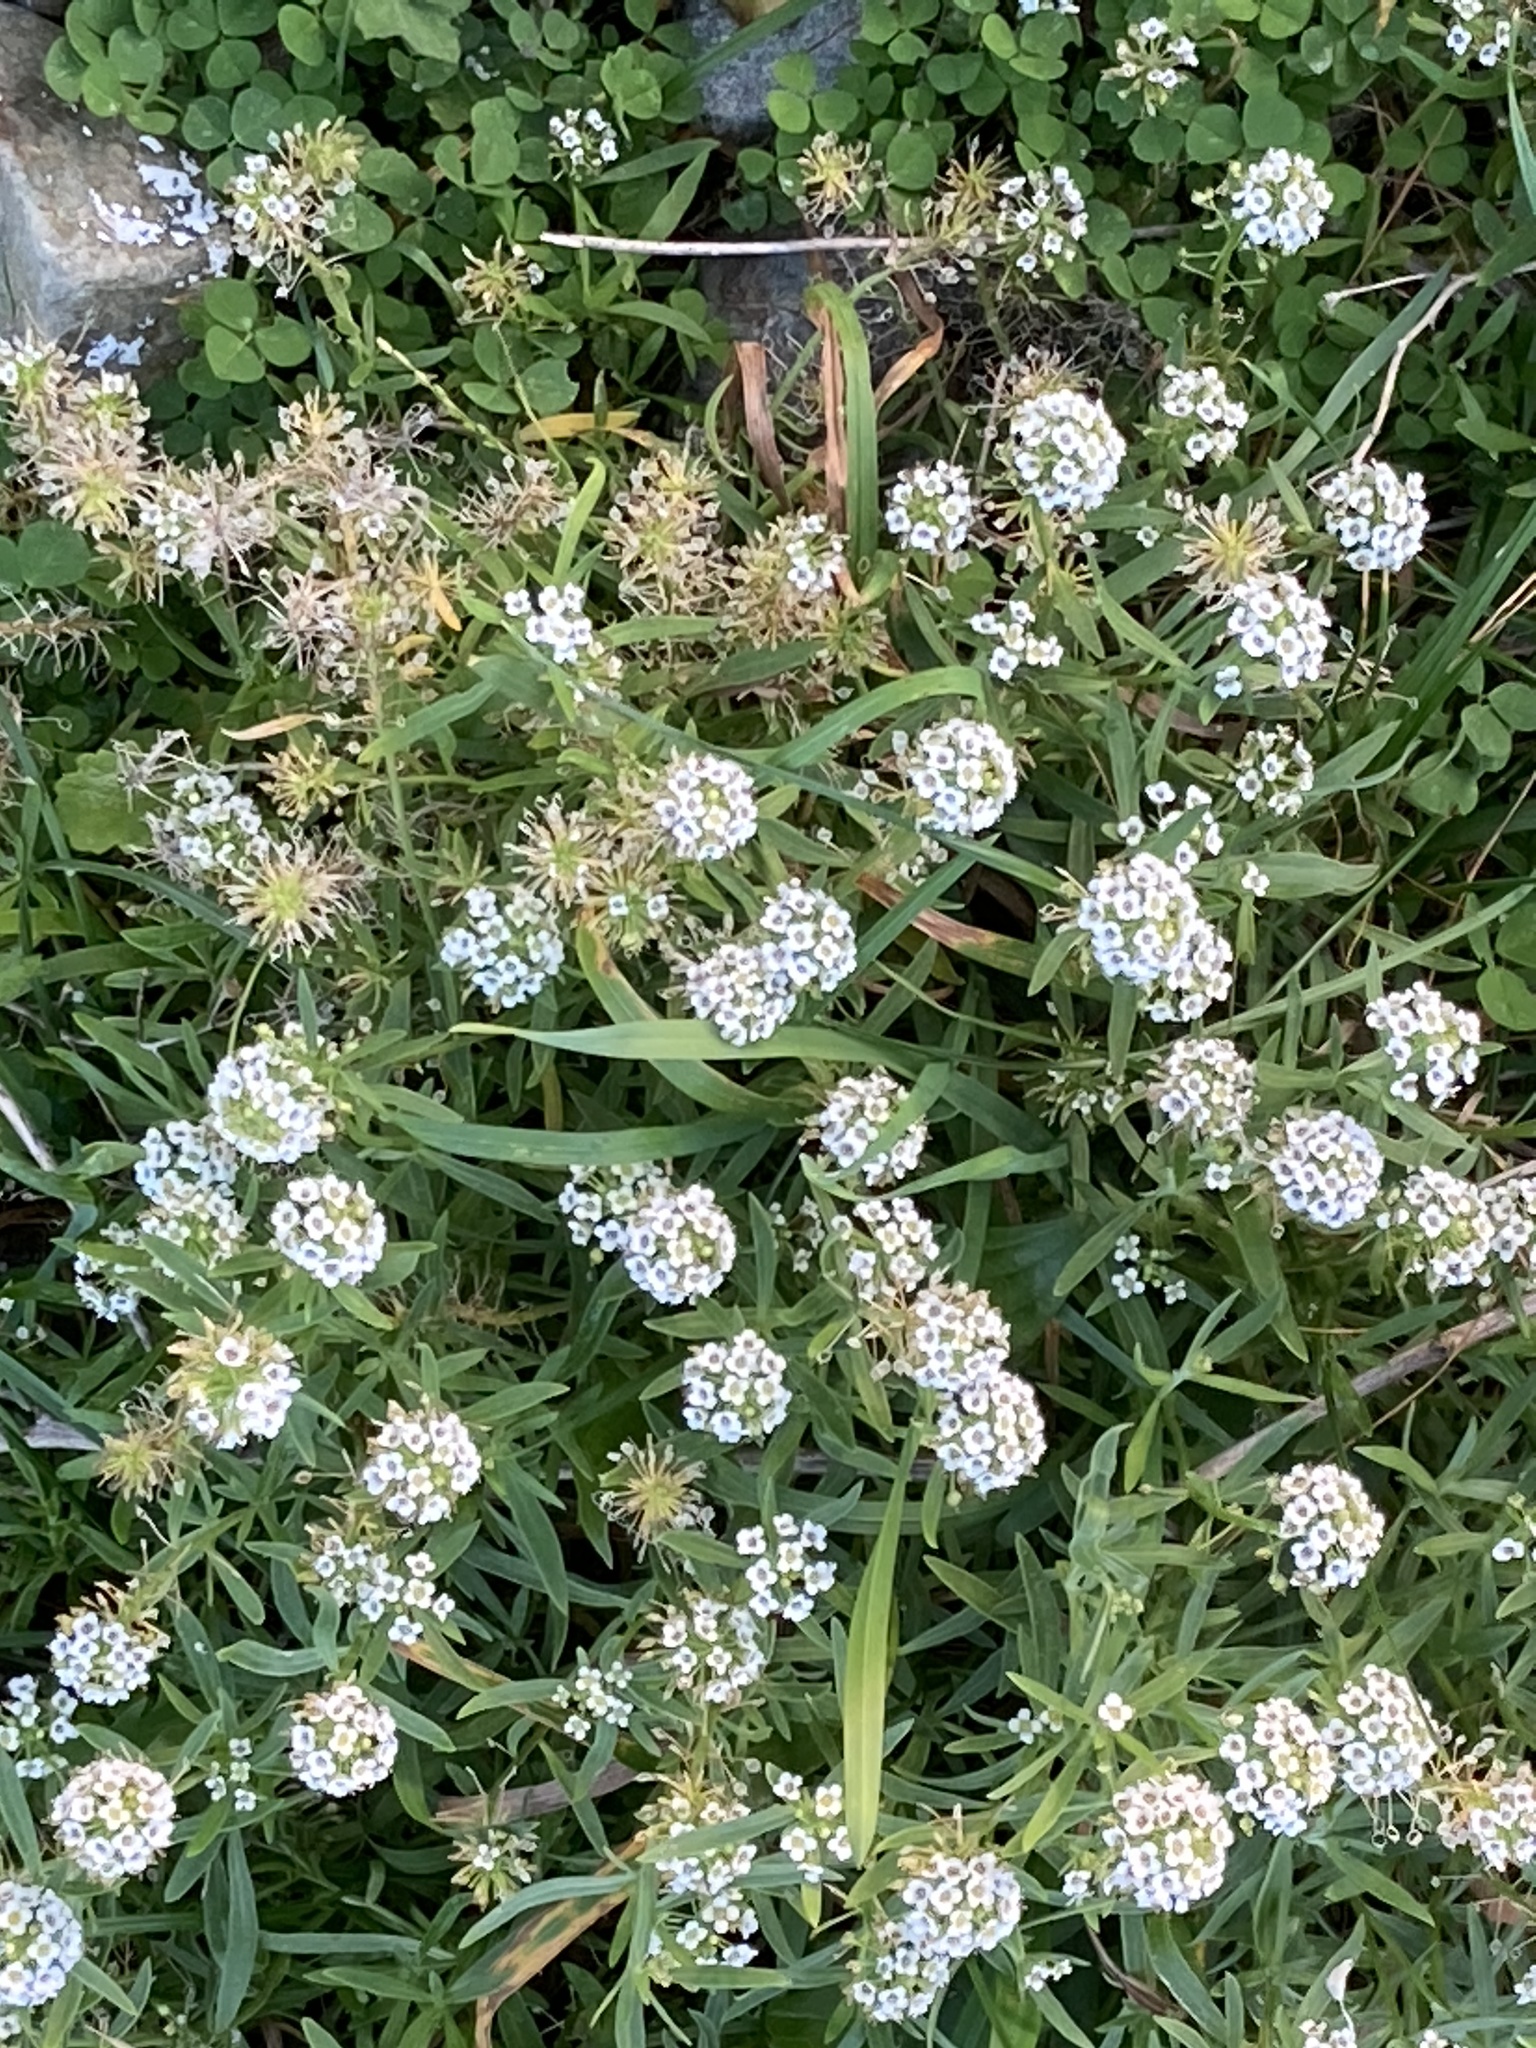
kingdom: Plantae
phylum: Tracheophyta
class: Magnoliopsida
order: Brassicales
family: Brassicaceae
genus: Lobularia
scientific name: Lobularia maritima
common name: Sweet alison
